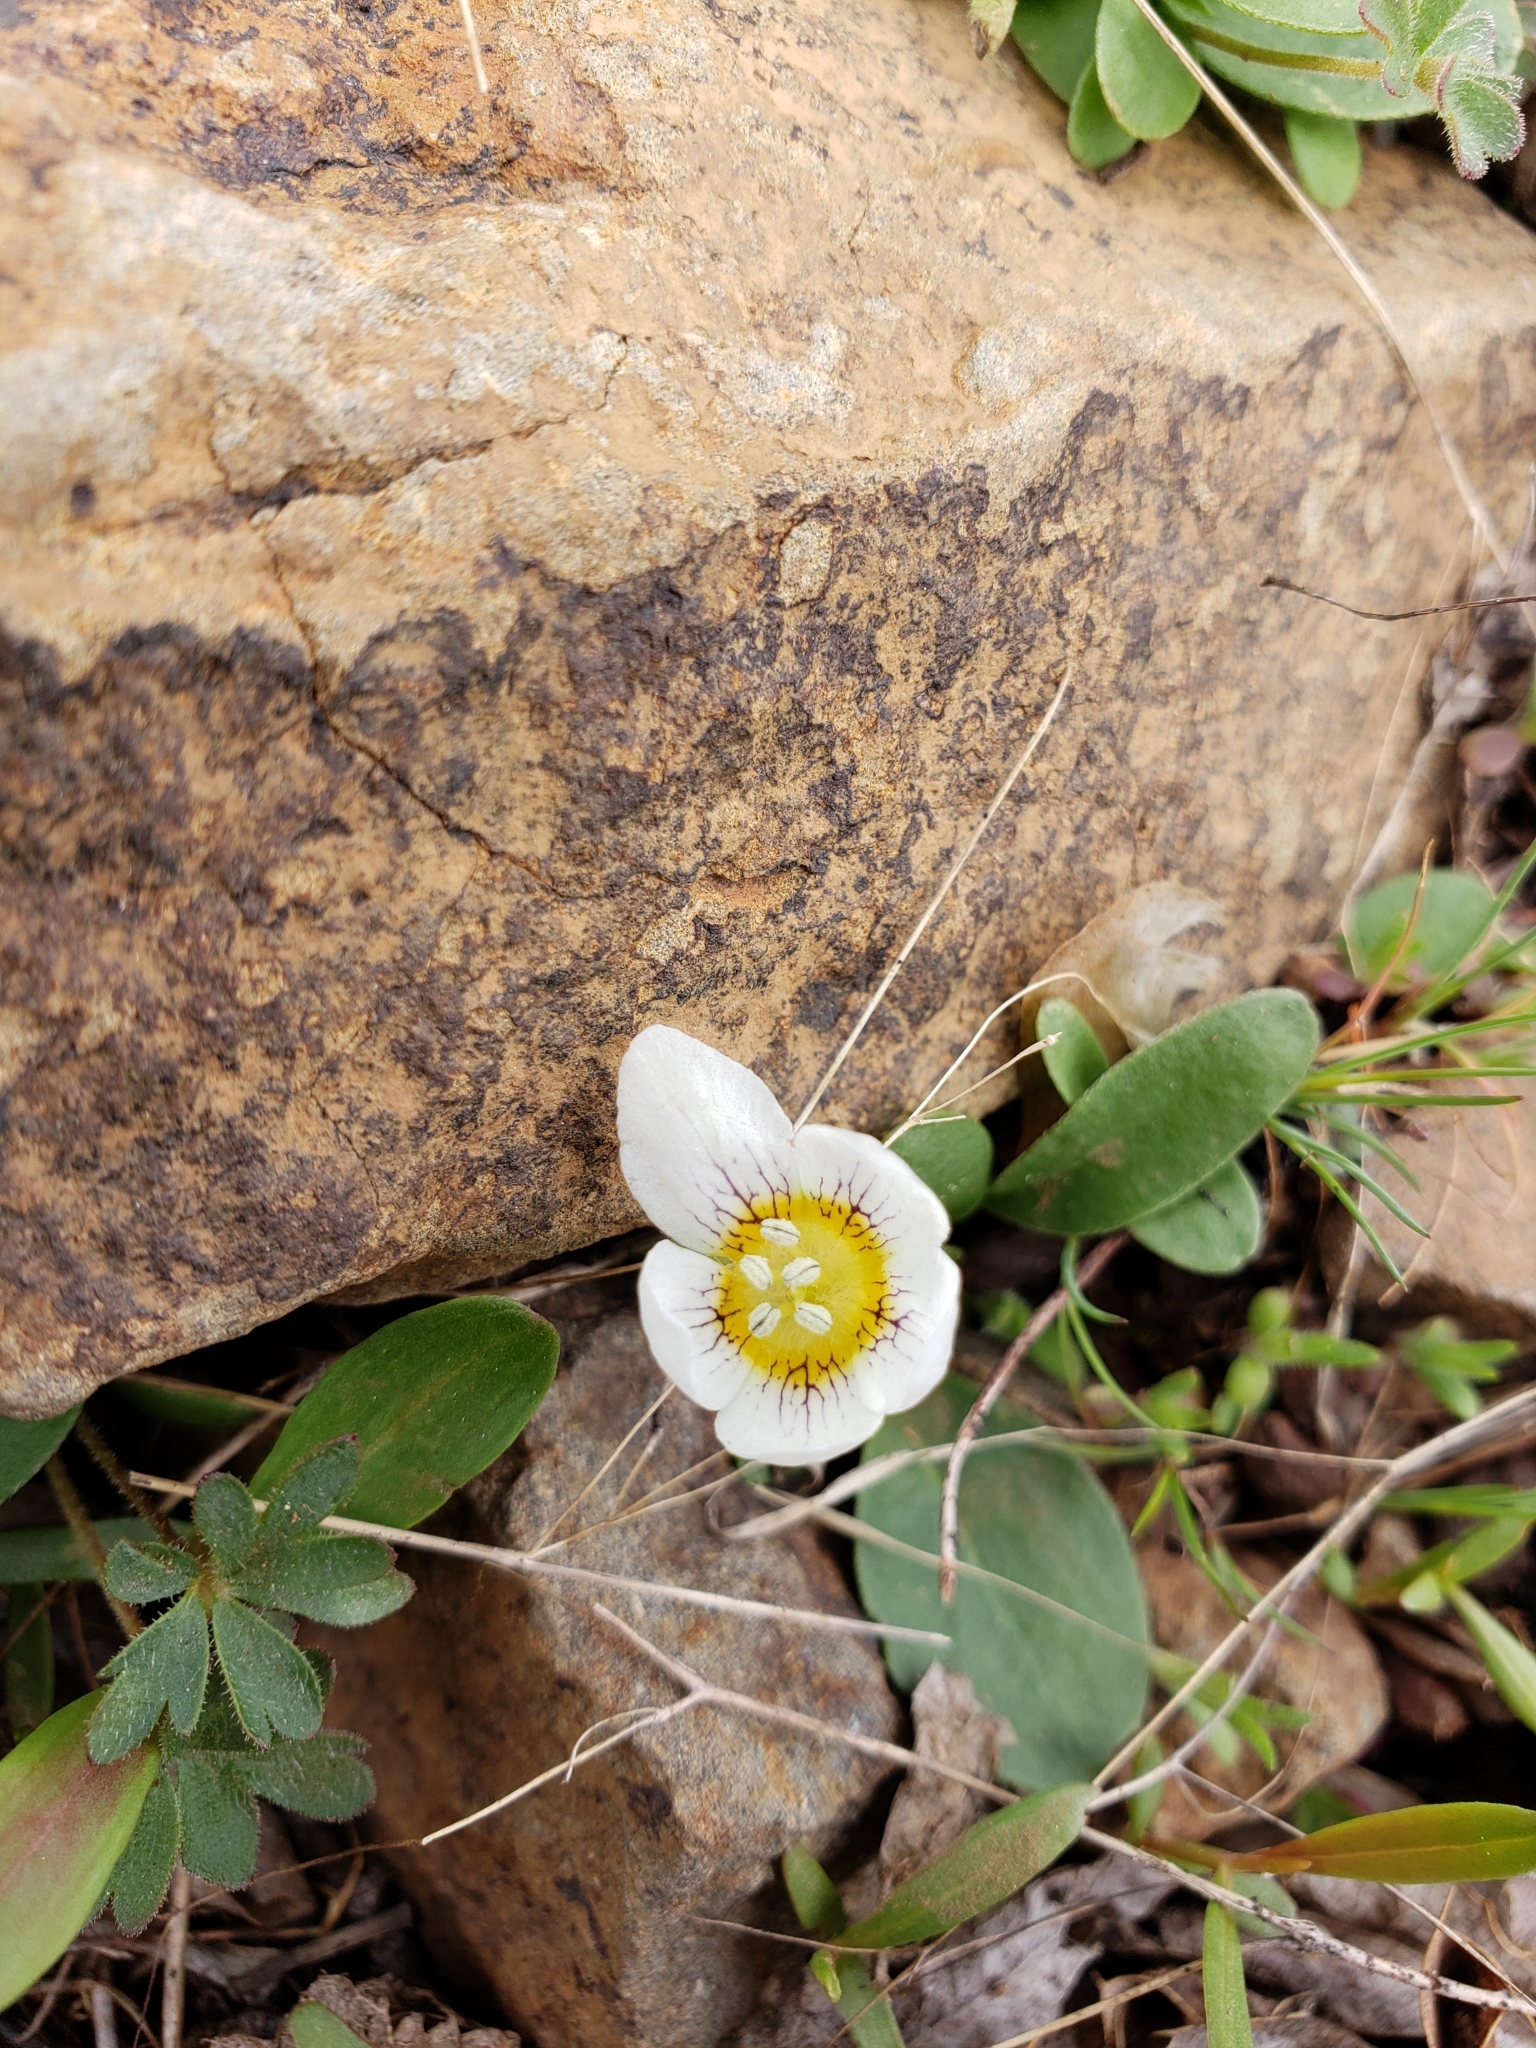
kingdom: Plantae
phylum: Tracheophyta
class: Magnoliopsida
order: Boraginales
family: Hydrophyllaceae
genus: Hesperochiron
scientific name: Hesperochiron pumilus
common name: Dwarf hesperochiron
